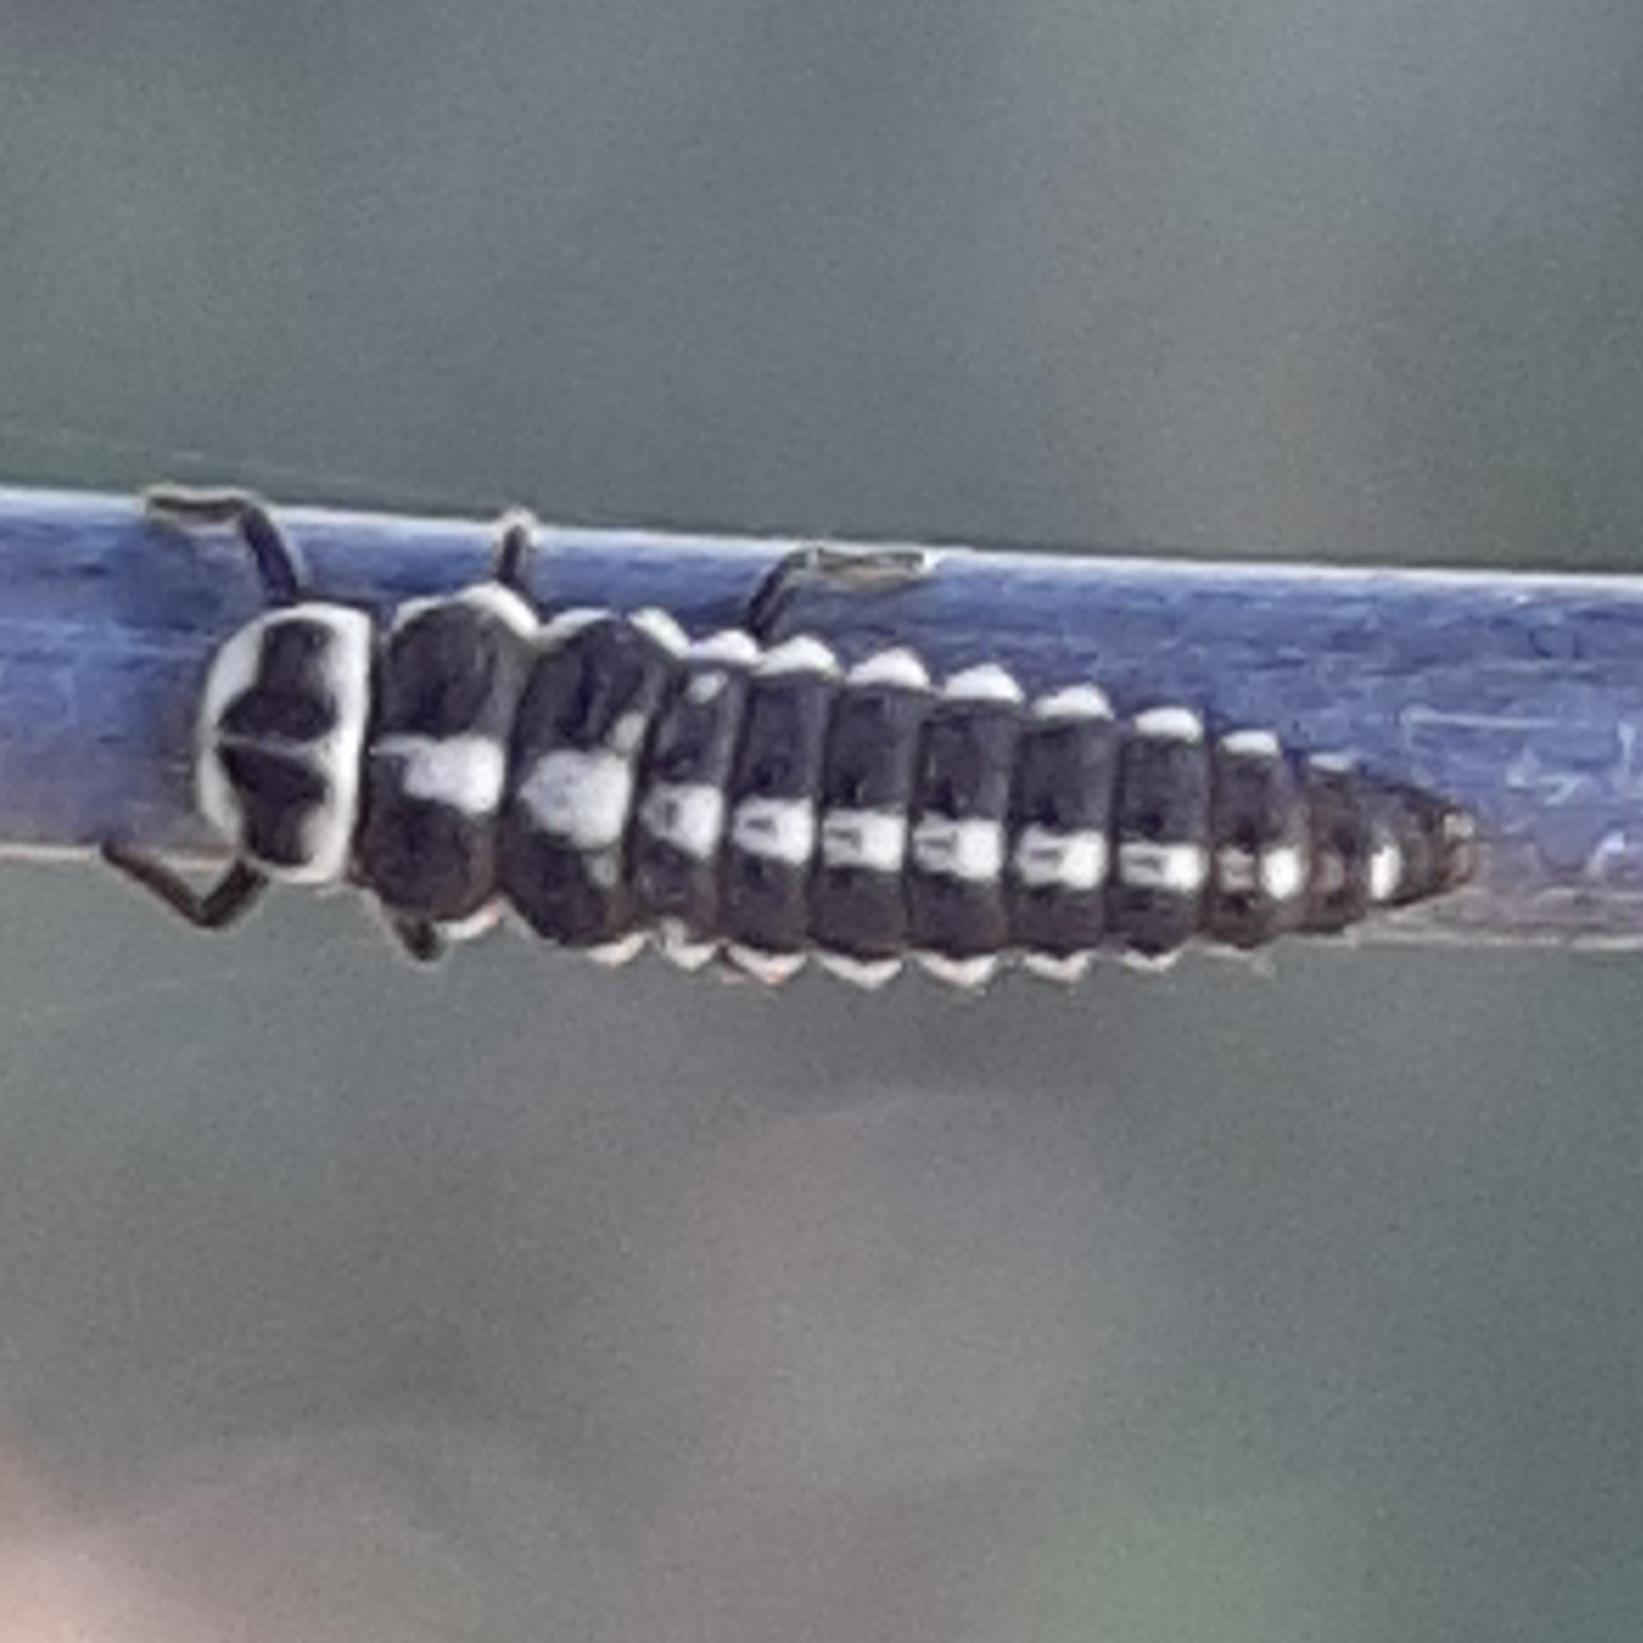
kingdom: Animalia
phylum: Arthropoda
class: Insecta
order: Coleoptera
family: Coccinellidae
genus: Mulsantina
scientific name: Mulsantina picta
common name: Painted ladybird
